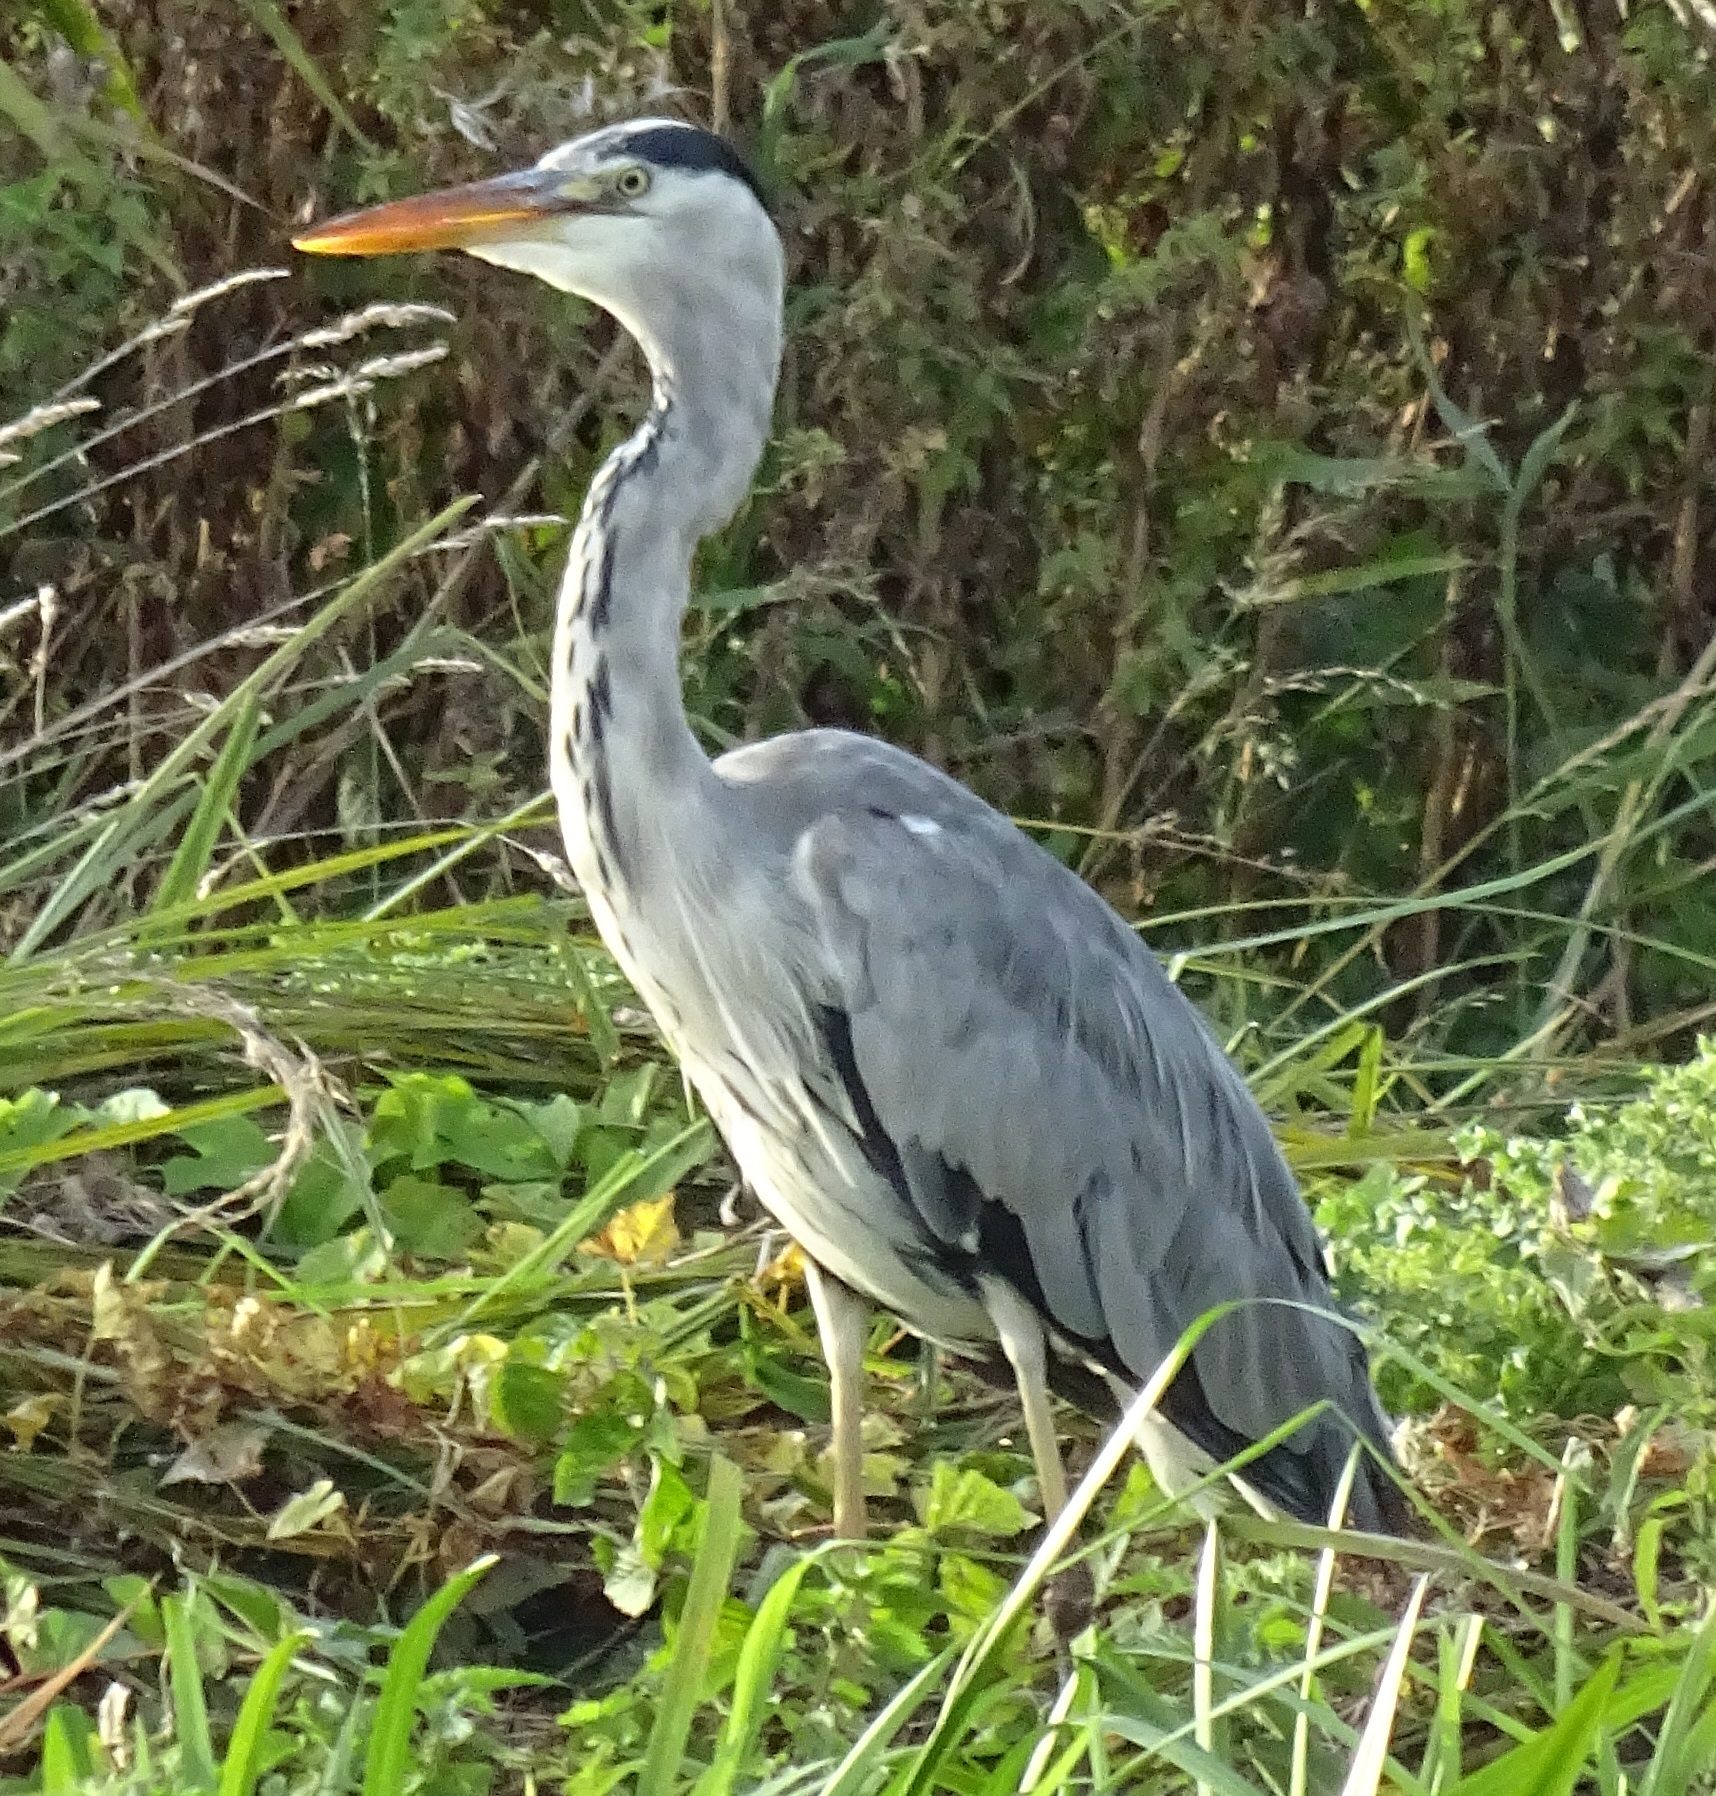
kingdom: Animalia
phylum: Chordata
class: Aves
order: Pelecaniformes
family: Ardeidae
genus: Ardea
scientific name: Ardea cinerea
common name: Grey heron
